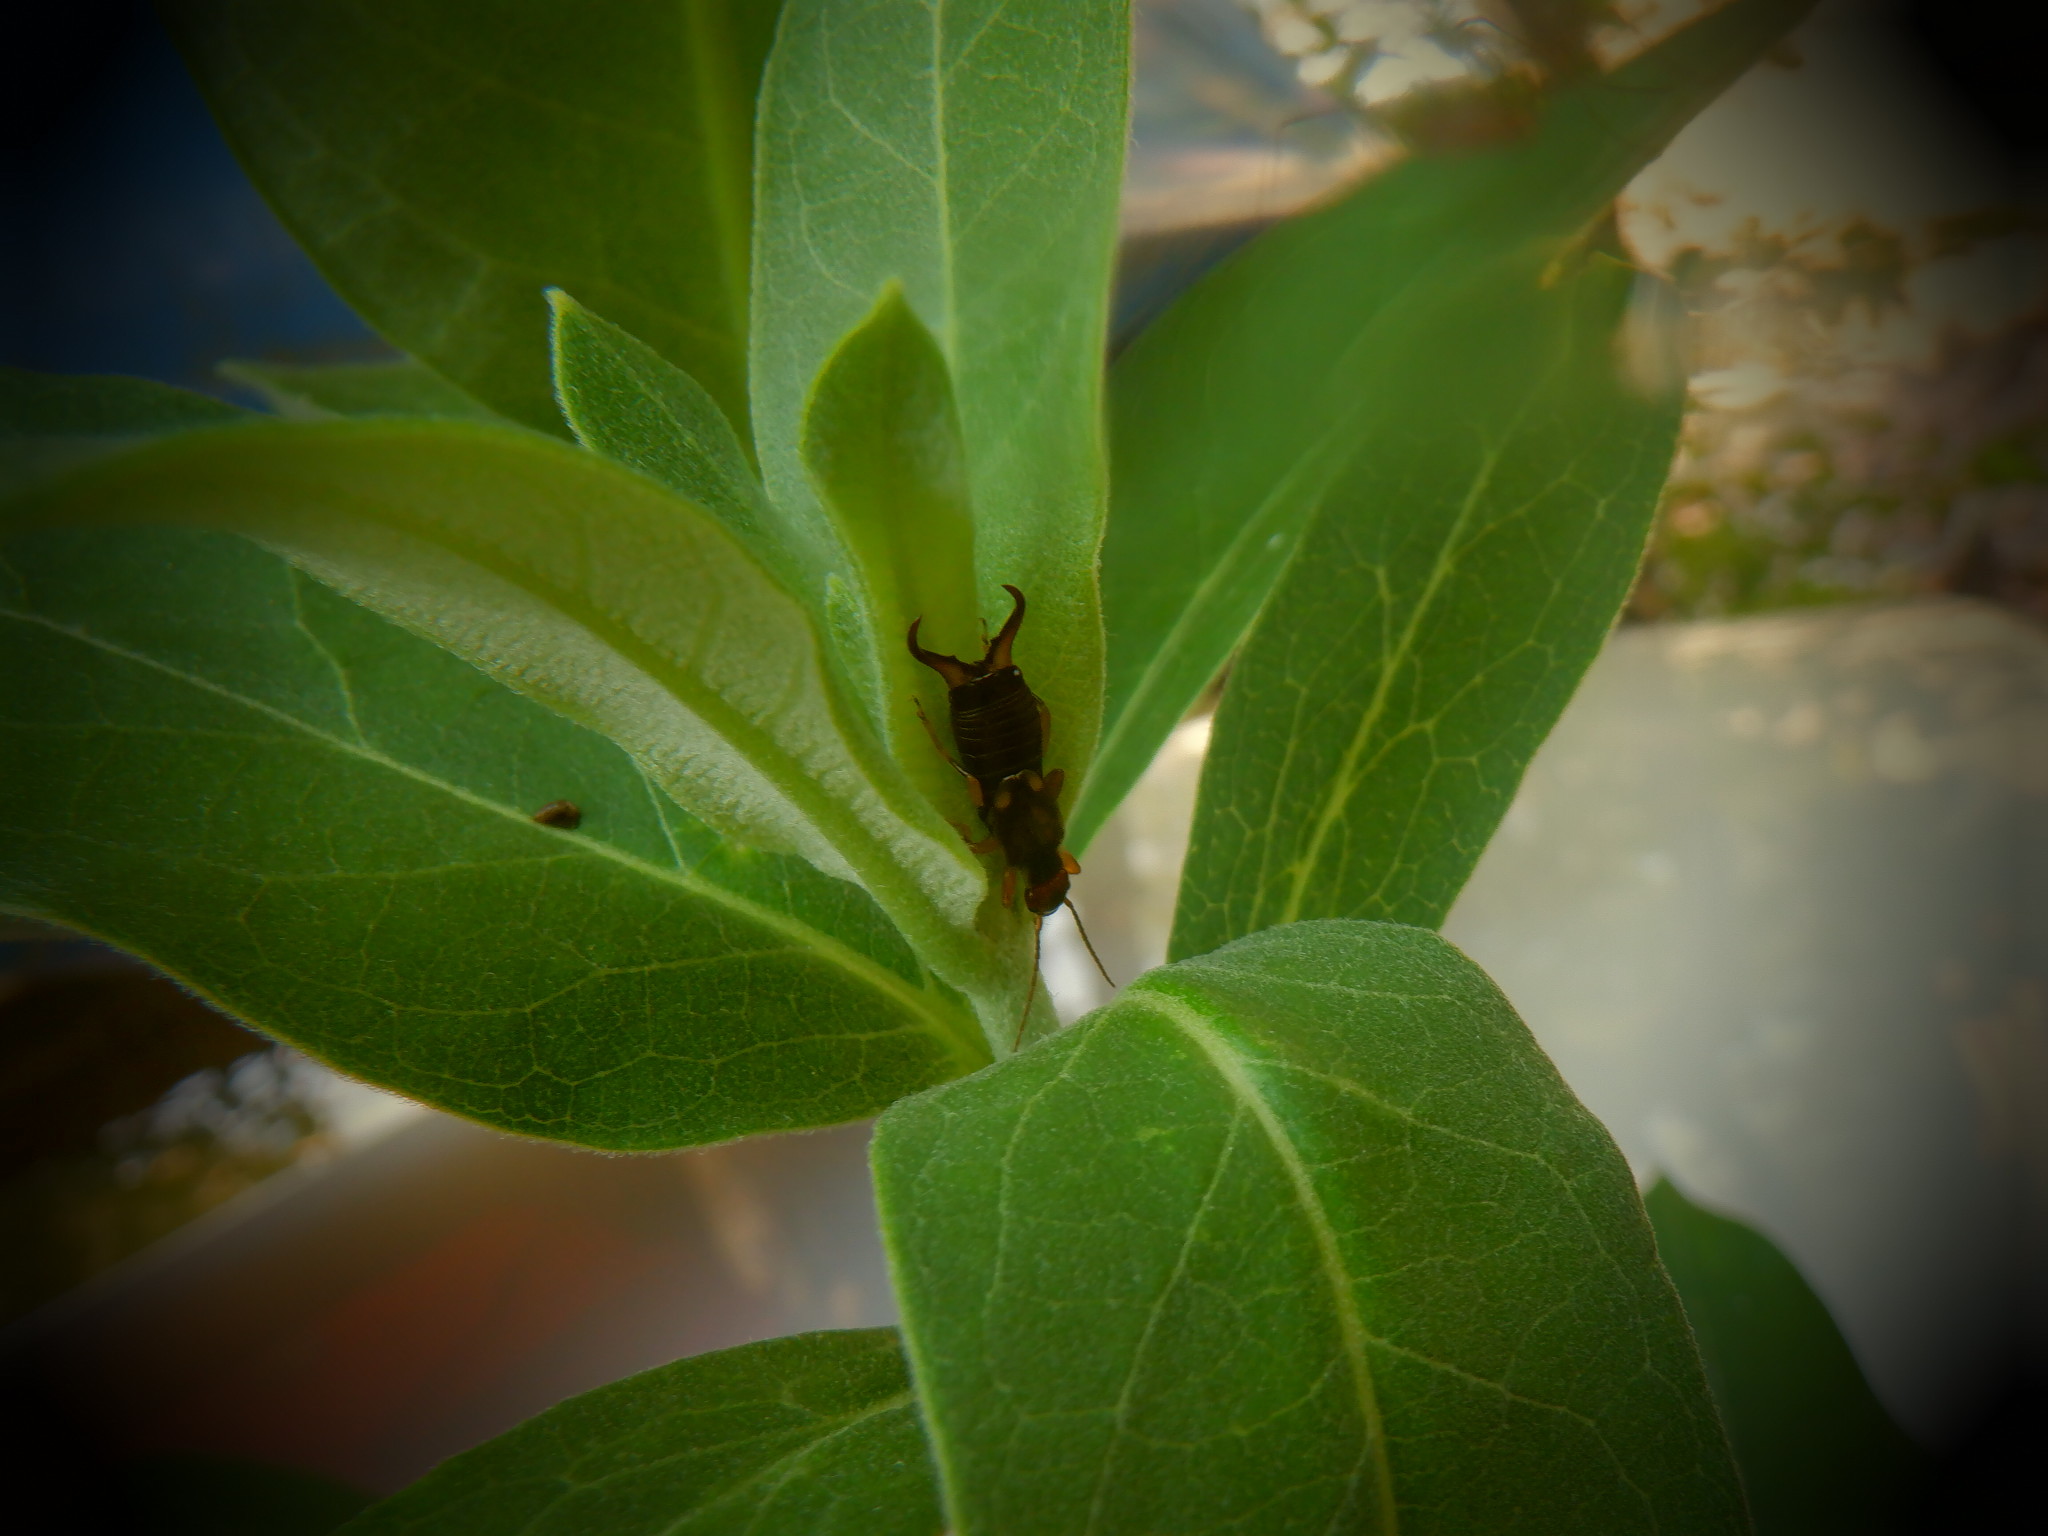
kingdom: Animalia
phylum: Arthropoda
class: Insecta
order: Dermaptera
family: Forficulidae
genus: Forficula
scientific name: Forficula
